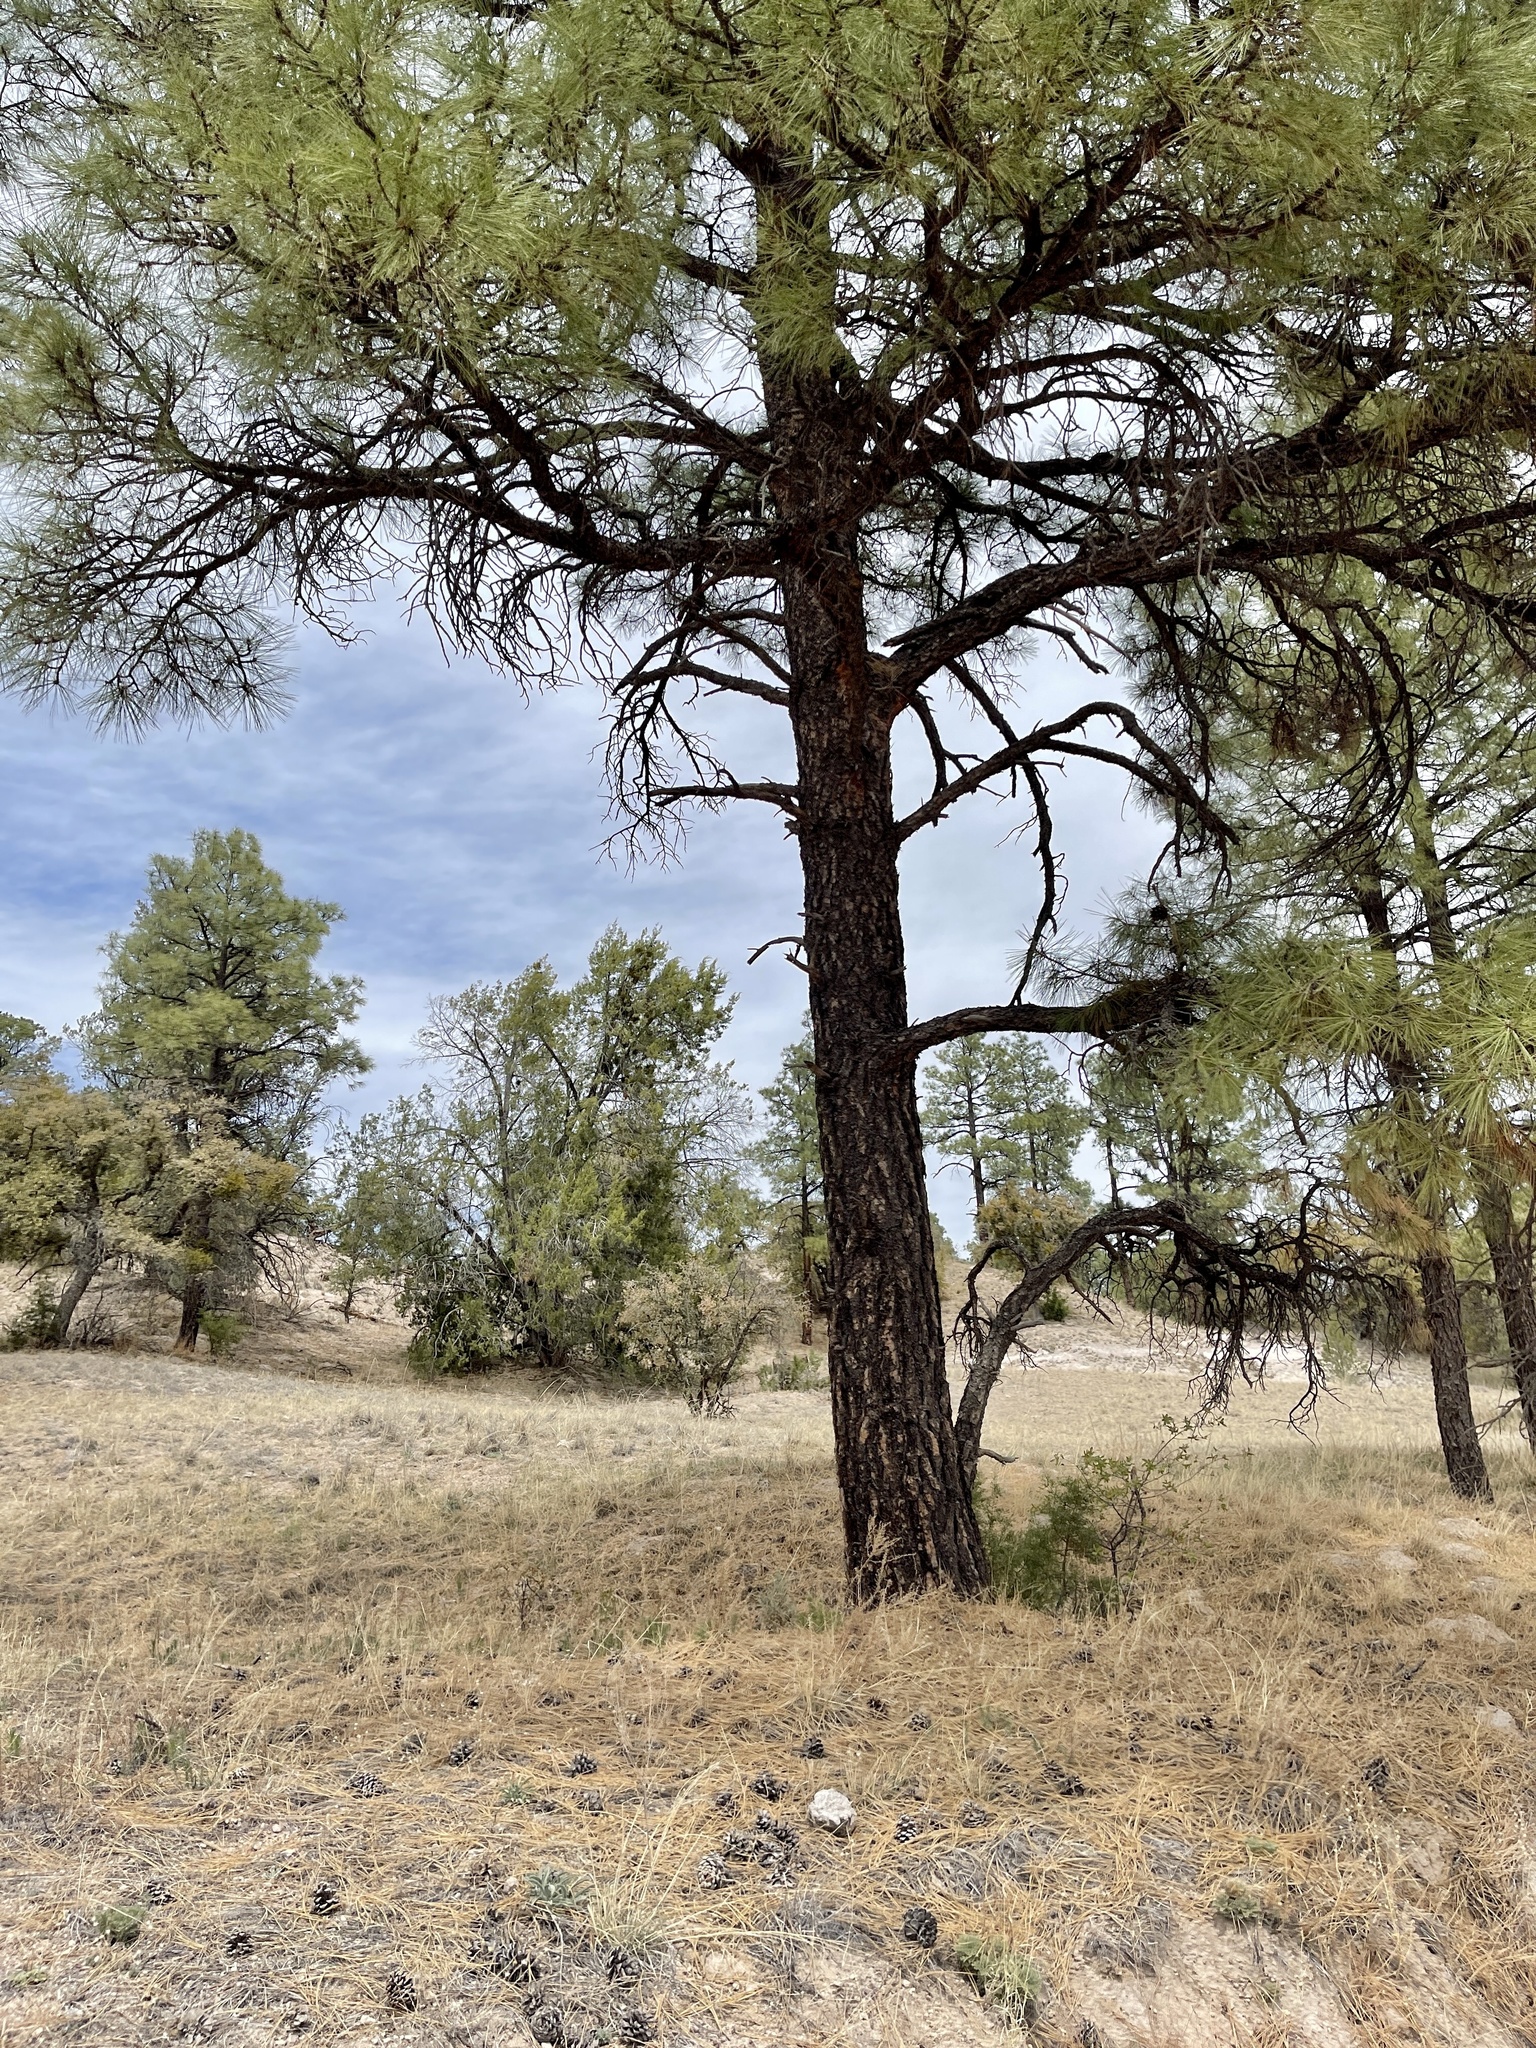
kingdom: Plantae
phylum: Tracheophyta
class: Pinopsida
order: Pinales
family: Pinaceae
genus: Pinus
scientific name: Pinus ponderosa
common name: Western yellow-pine
